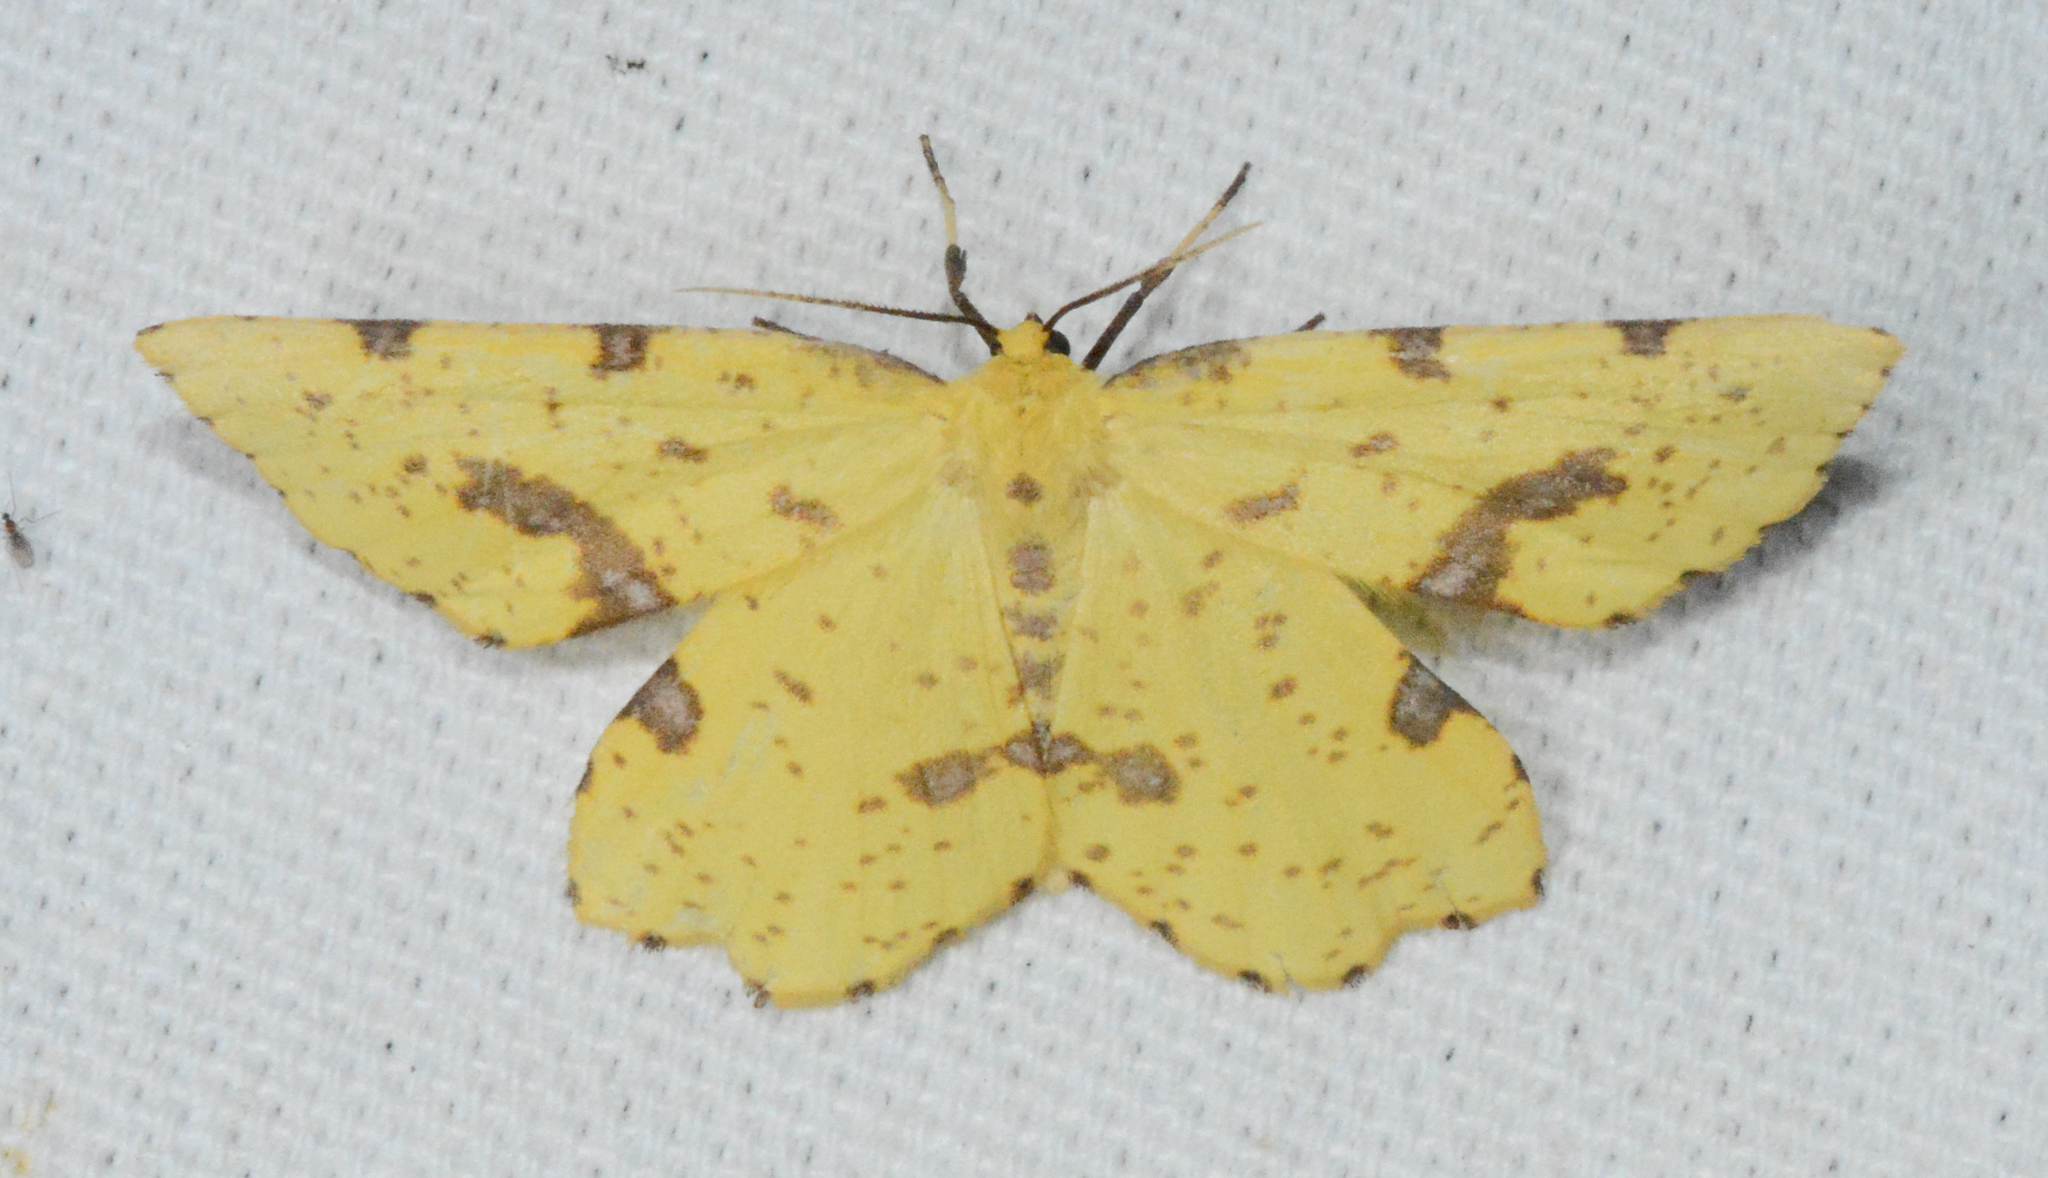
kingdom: Animalia
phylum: Arthropoda
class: Insecta
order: Lepidoptera
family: Geometridae
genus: Xanthotype
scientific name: Xanthotype
